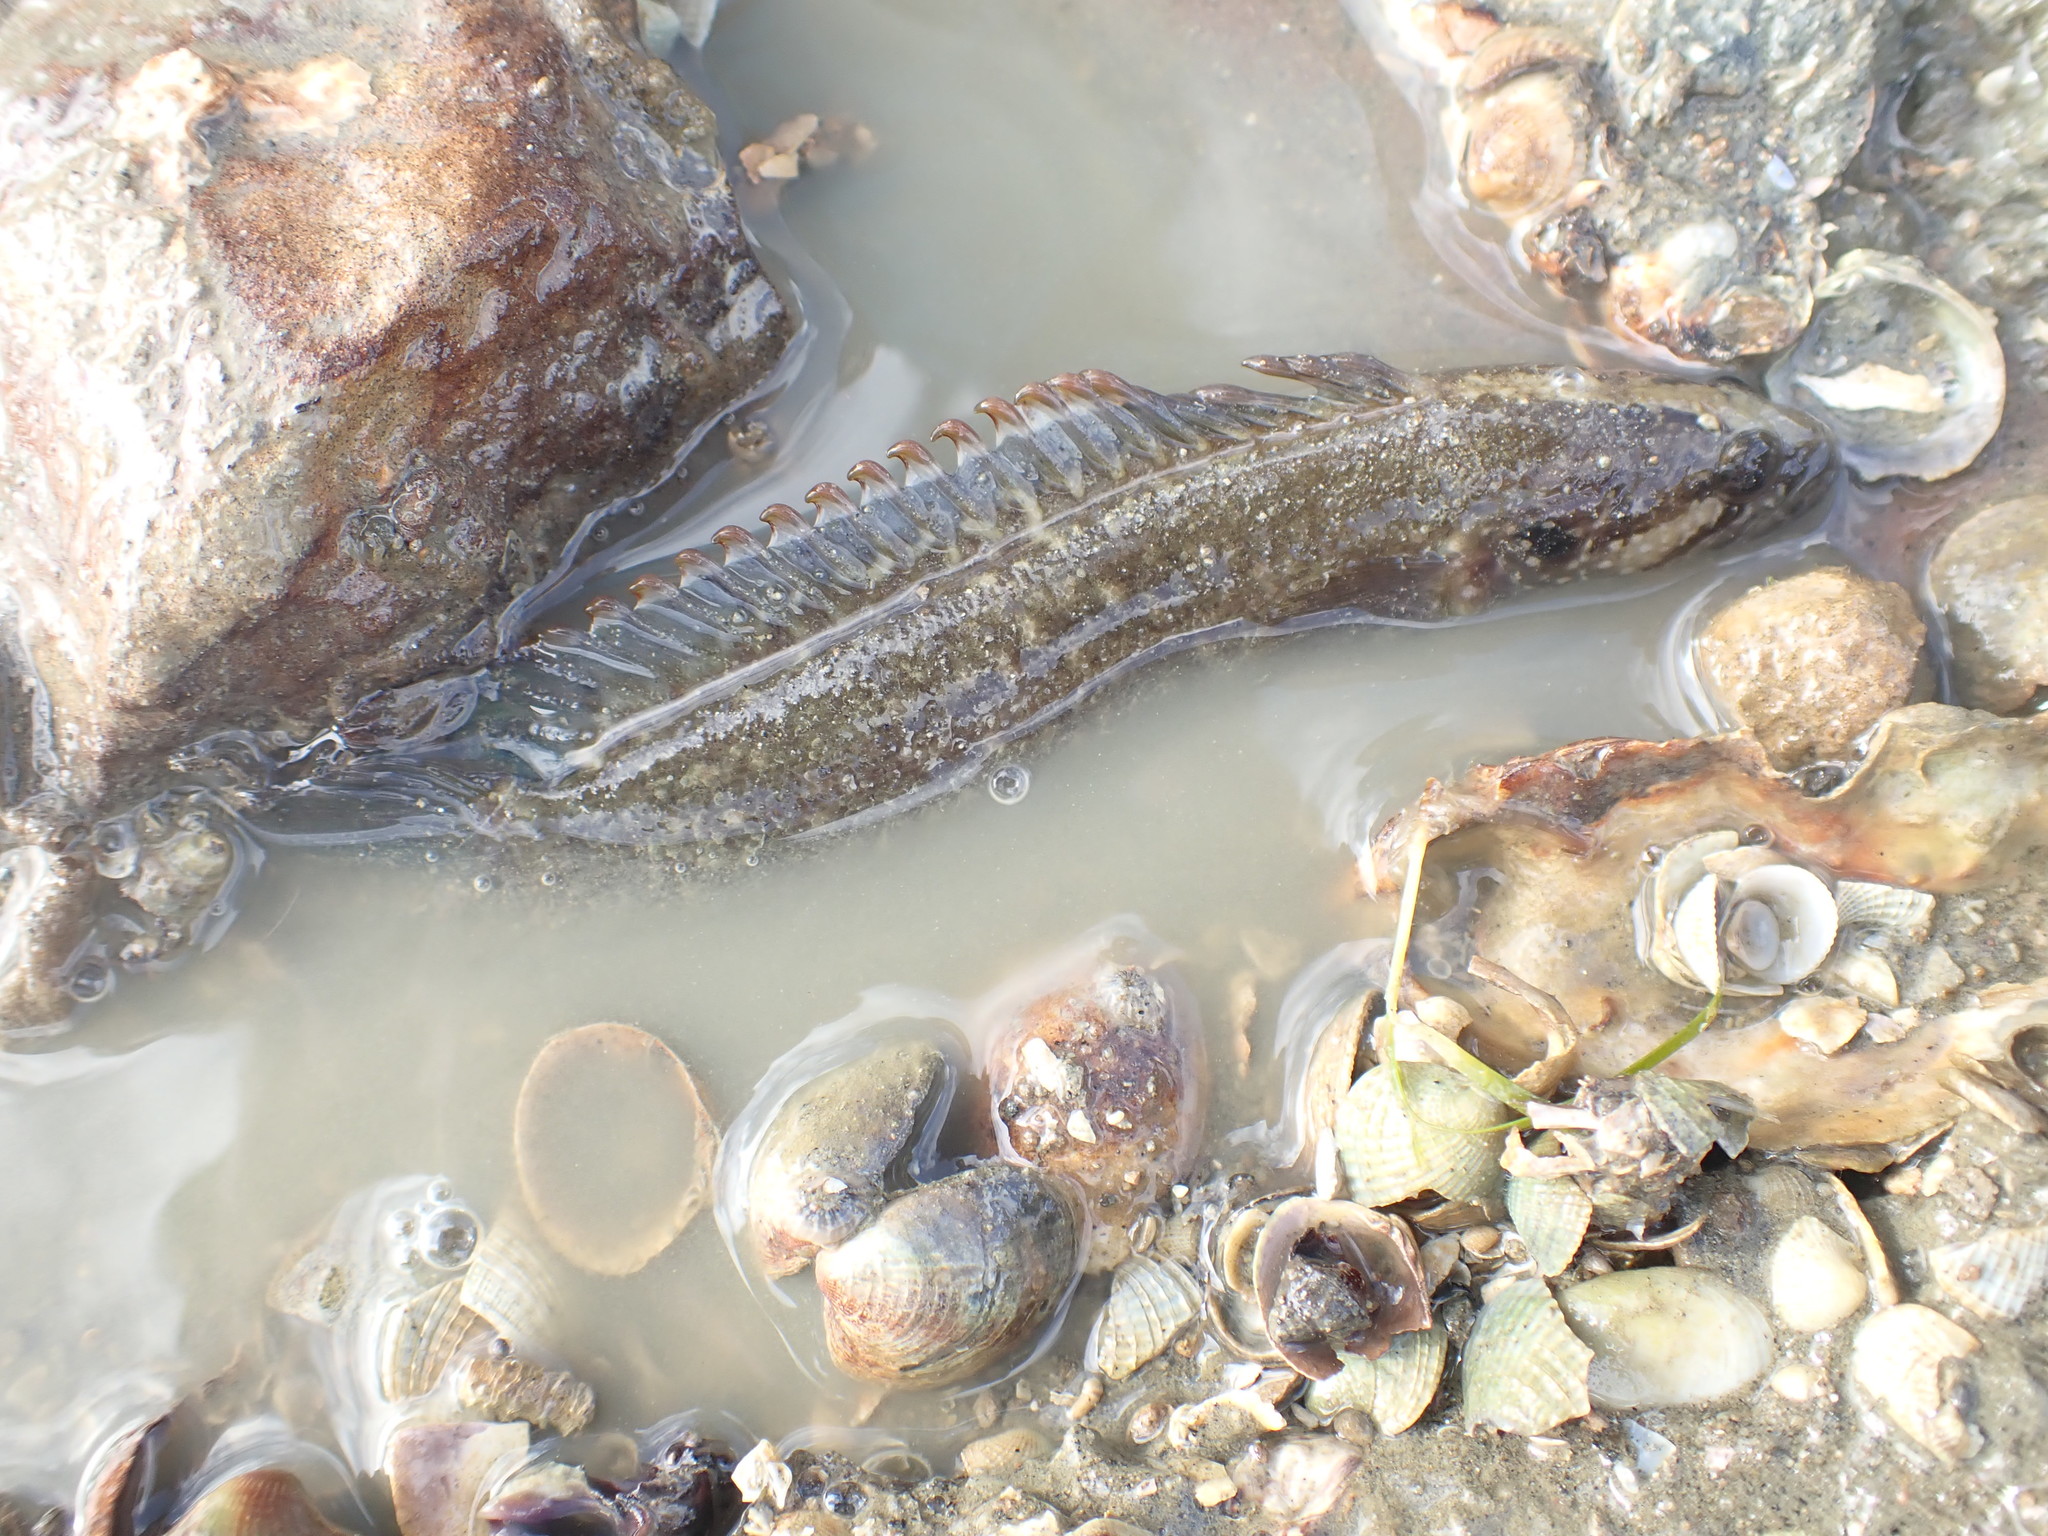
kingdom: Animalia
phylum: Chordata
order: Perciformes
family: Plesiopidae
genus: Acanthoclinus
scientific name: Acanthoclinus fuscus
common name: Olive rockfish
